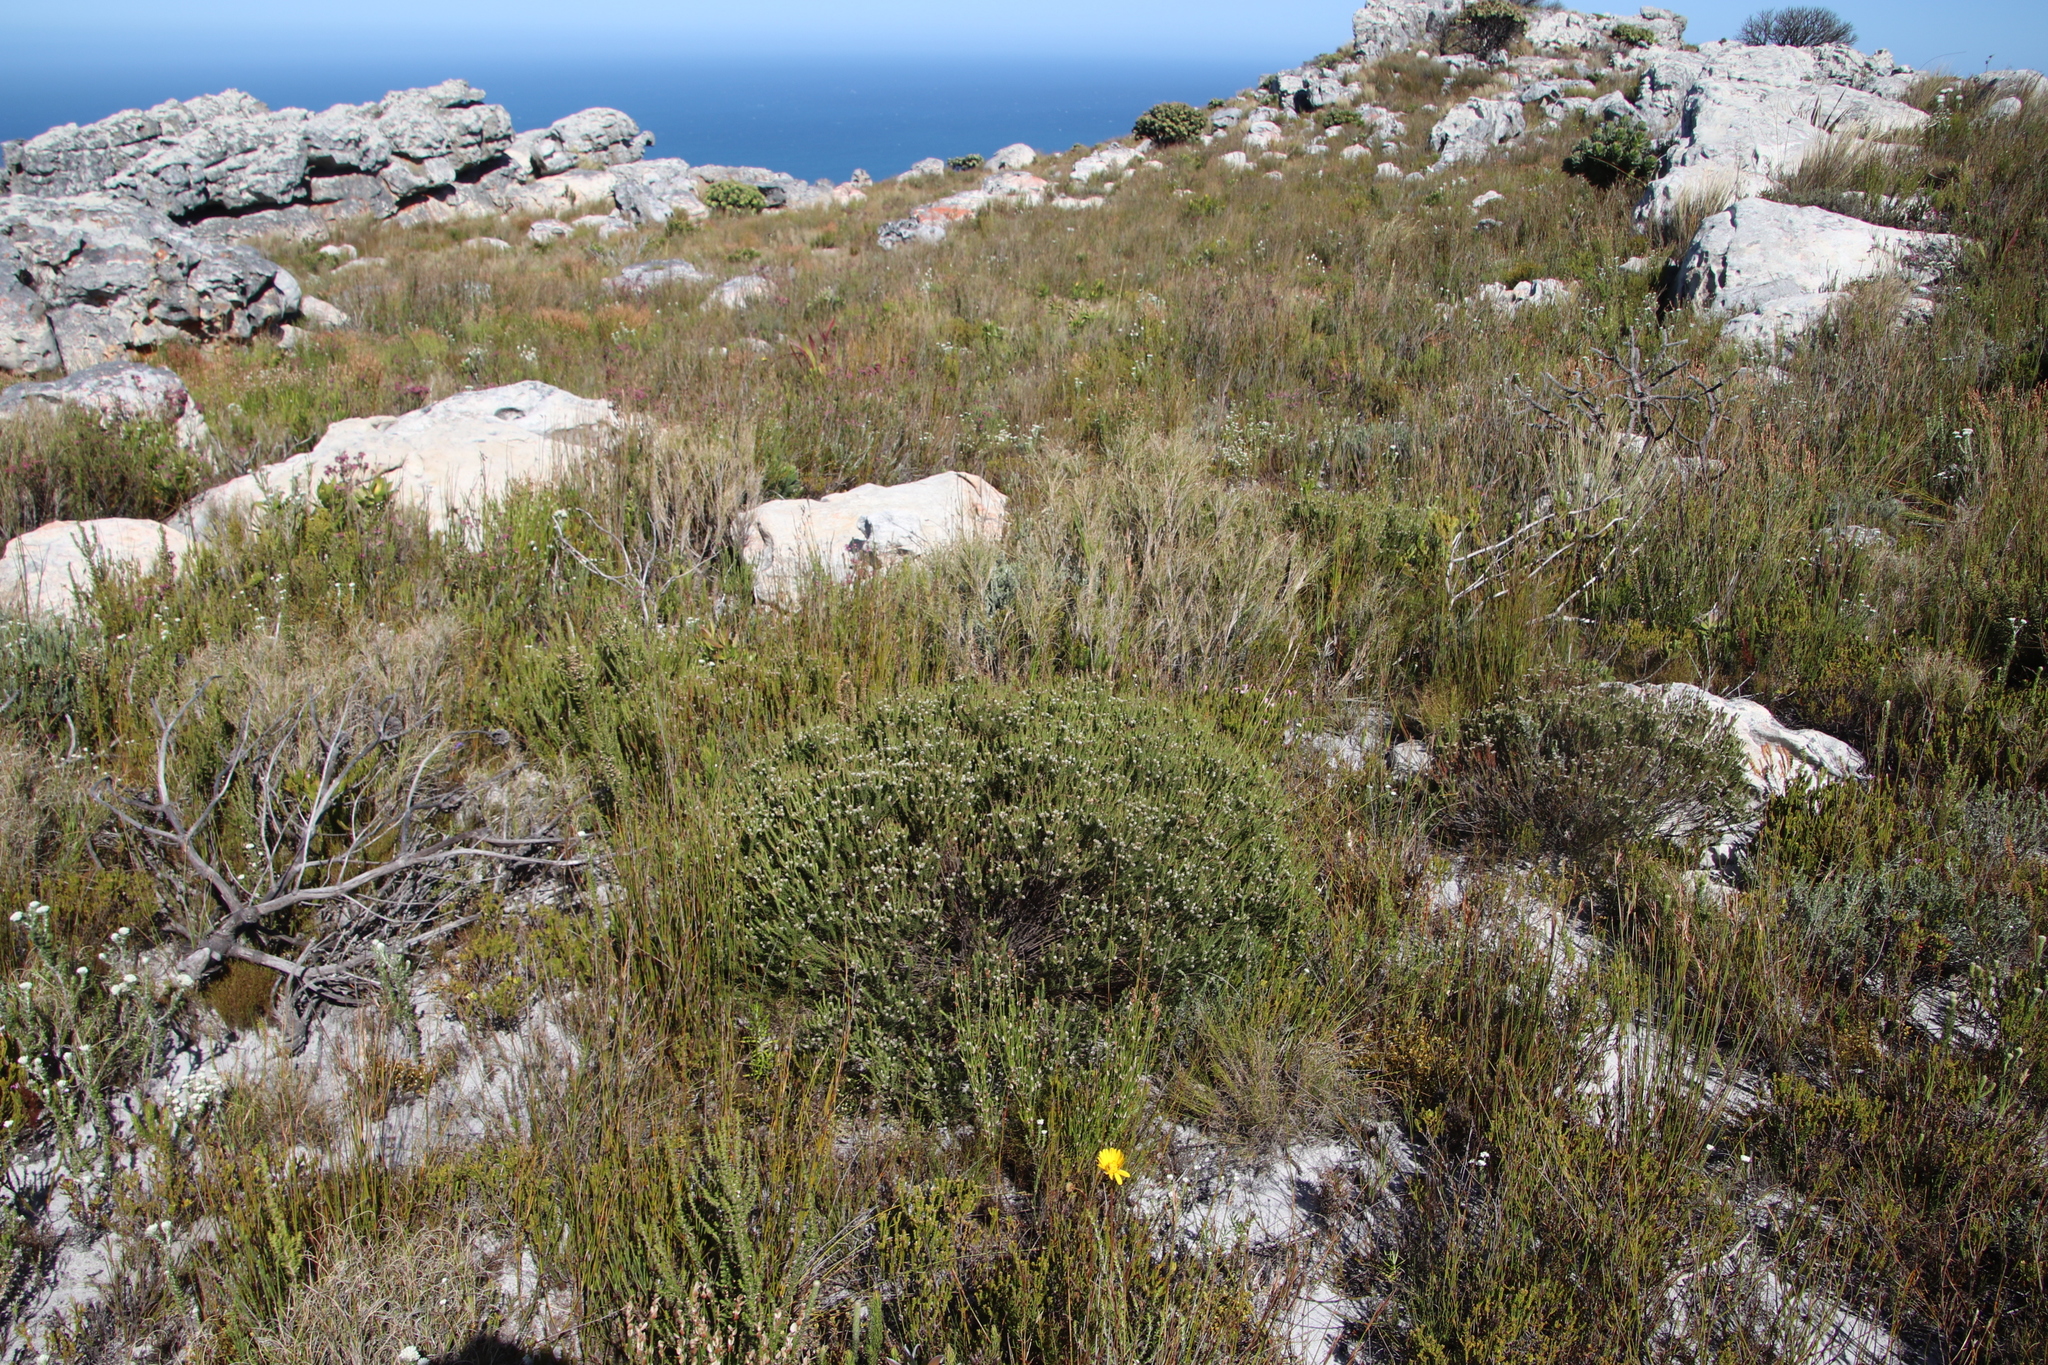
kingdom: Plantae
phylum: Tracheophyta
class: Magnoliopsida
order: Bruniales
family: Bruniaceae
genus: Staavia
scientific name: Staavia radiata
